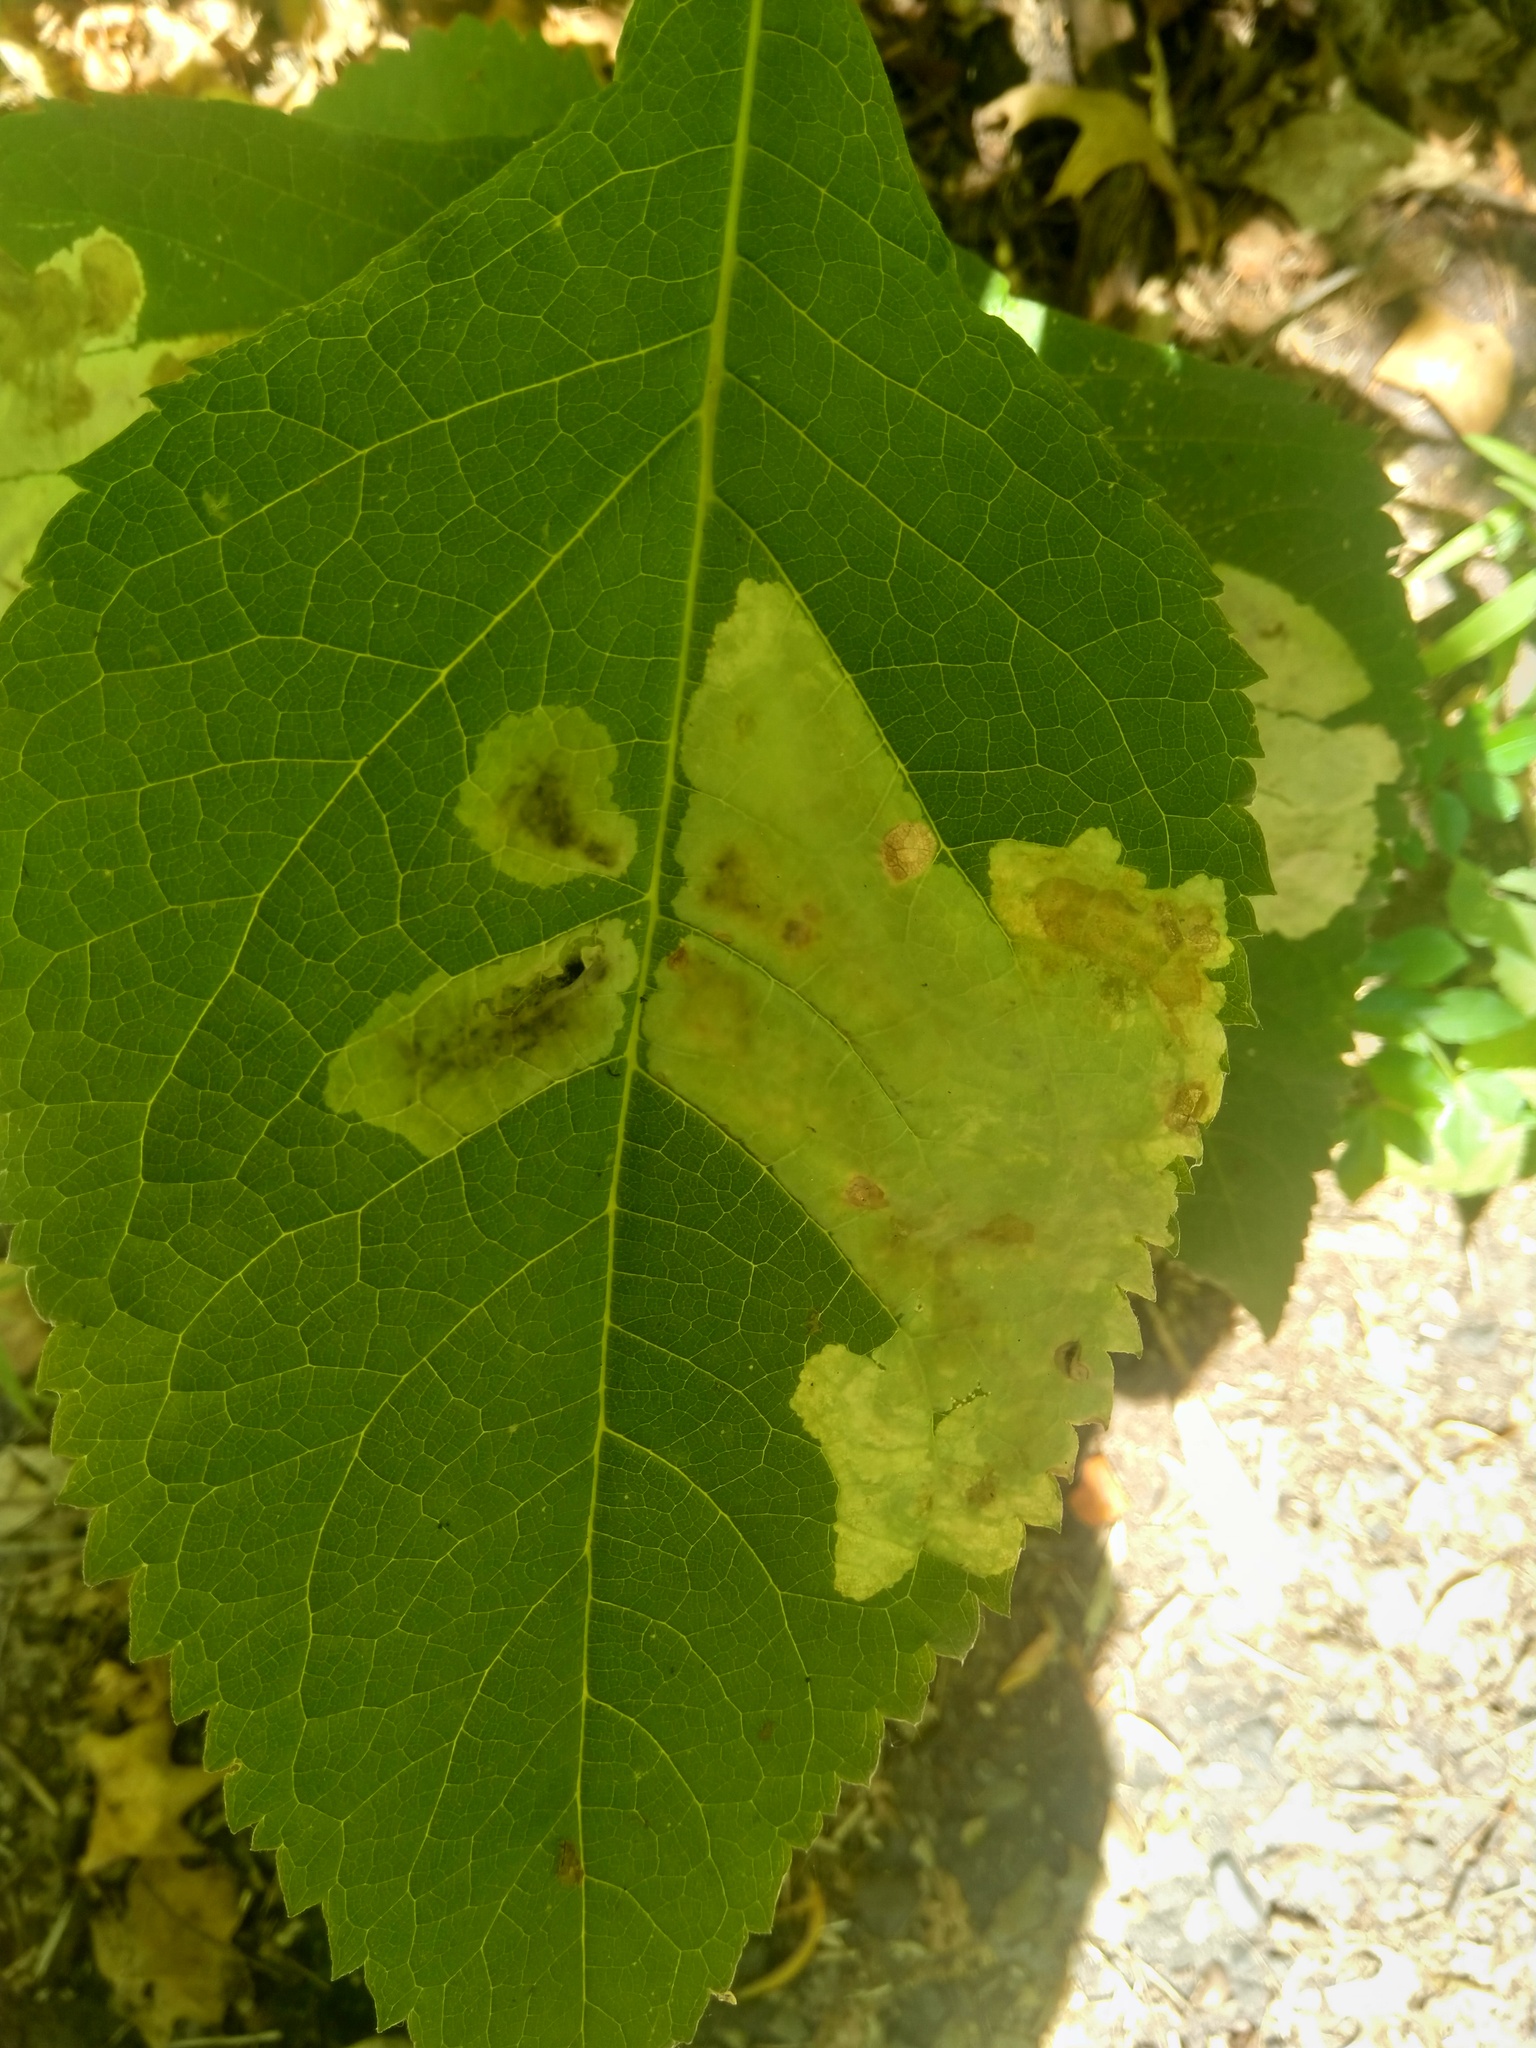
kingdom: Animalia
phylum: Arthropoda
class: Insecta
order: Diptera
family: Agromyzidae
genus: Calycomyza
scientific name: Calycomyza flavinotum
